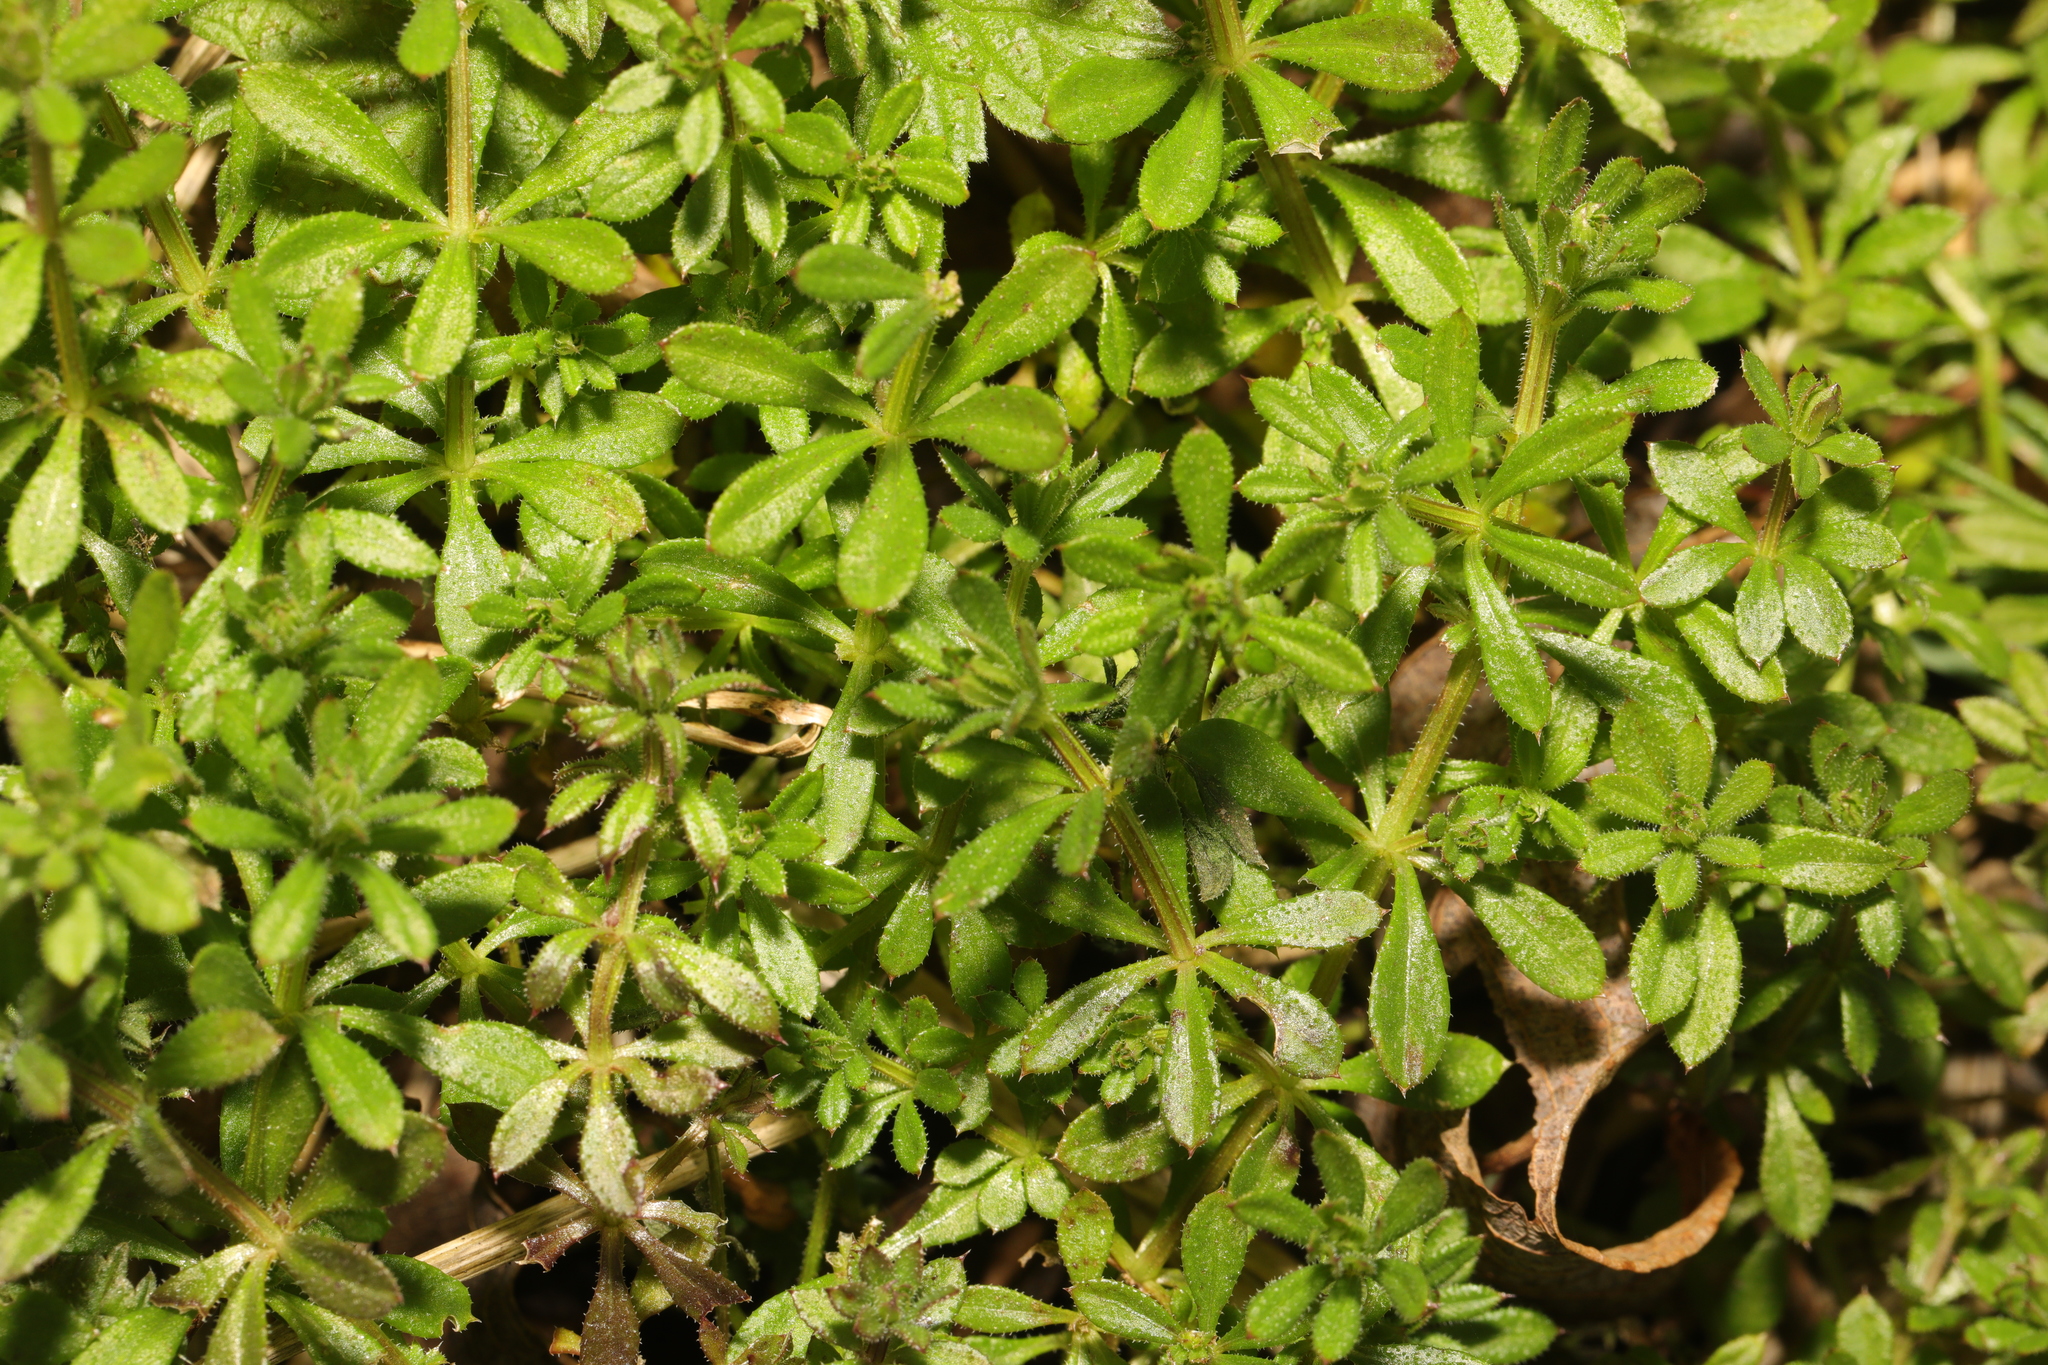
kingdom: Plantae
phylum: Tracheophyta
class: Magnoliopsida
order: Gentianales
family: Rubiaceae
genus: Galium
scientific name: Galium aparine
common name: Cleavers
